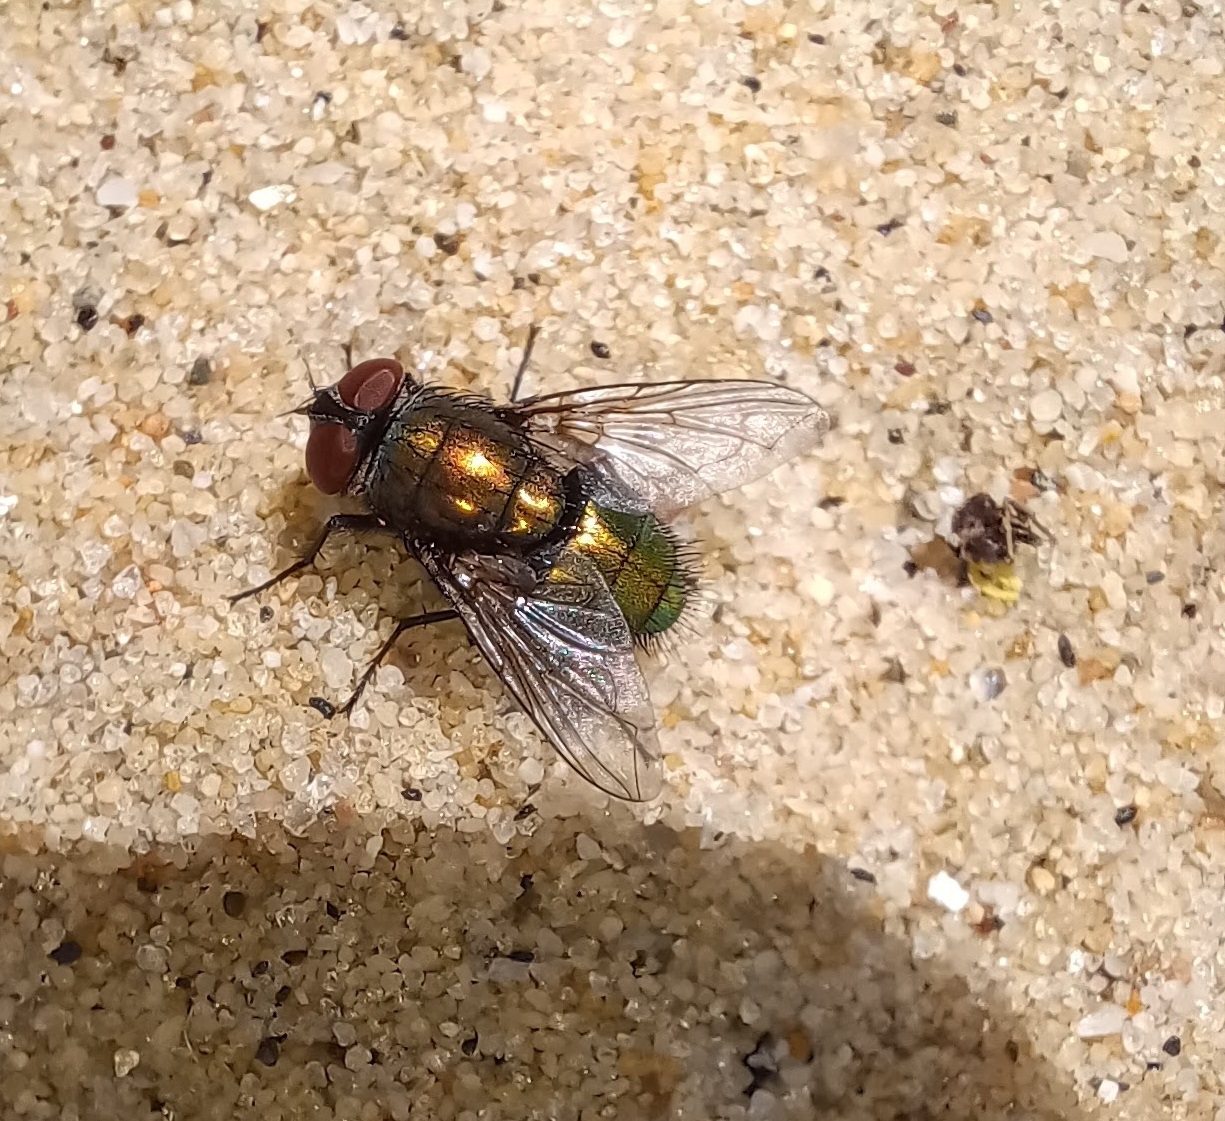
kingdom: Animalia
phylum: Arthropoda
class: Insecta
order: Diptera
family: Calliphoridae
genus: Lucilia
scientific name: Lucilia sericata
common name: Blow fly
